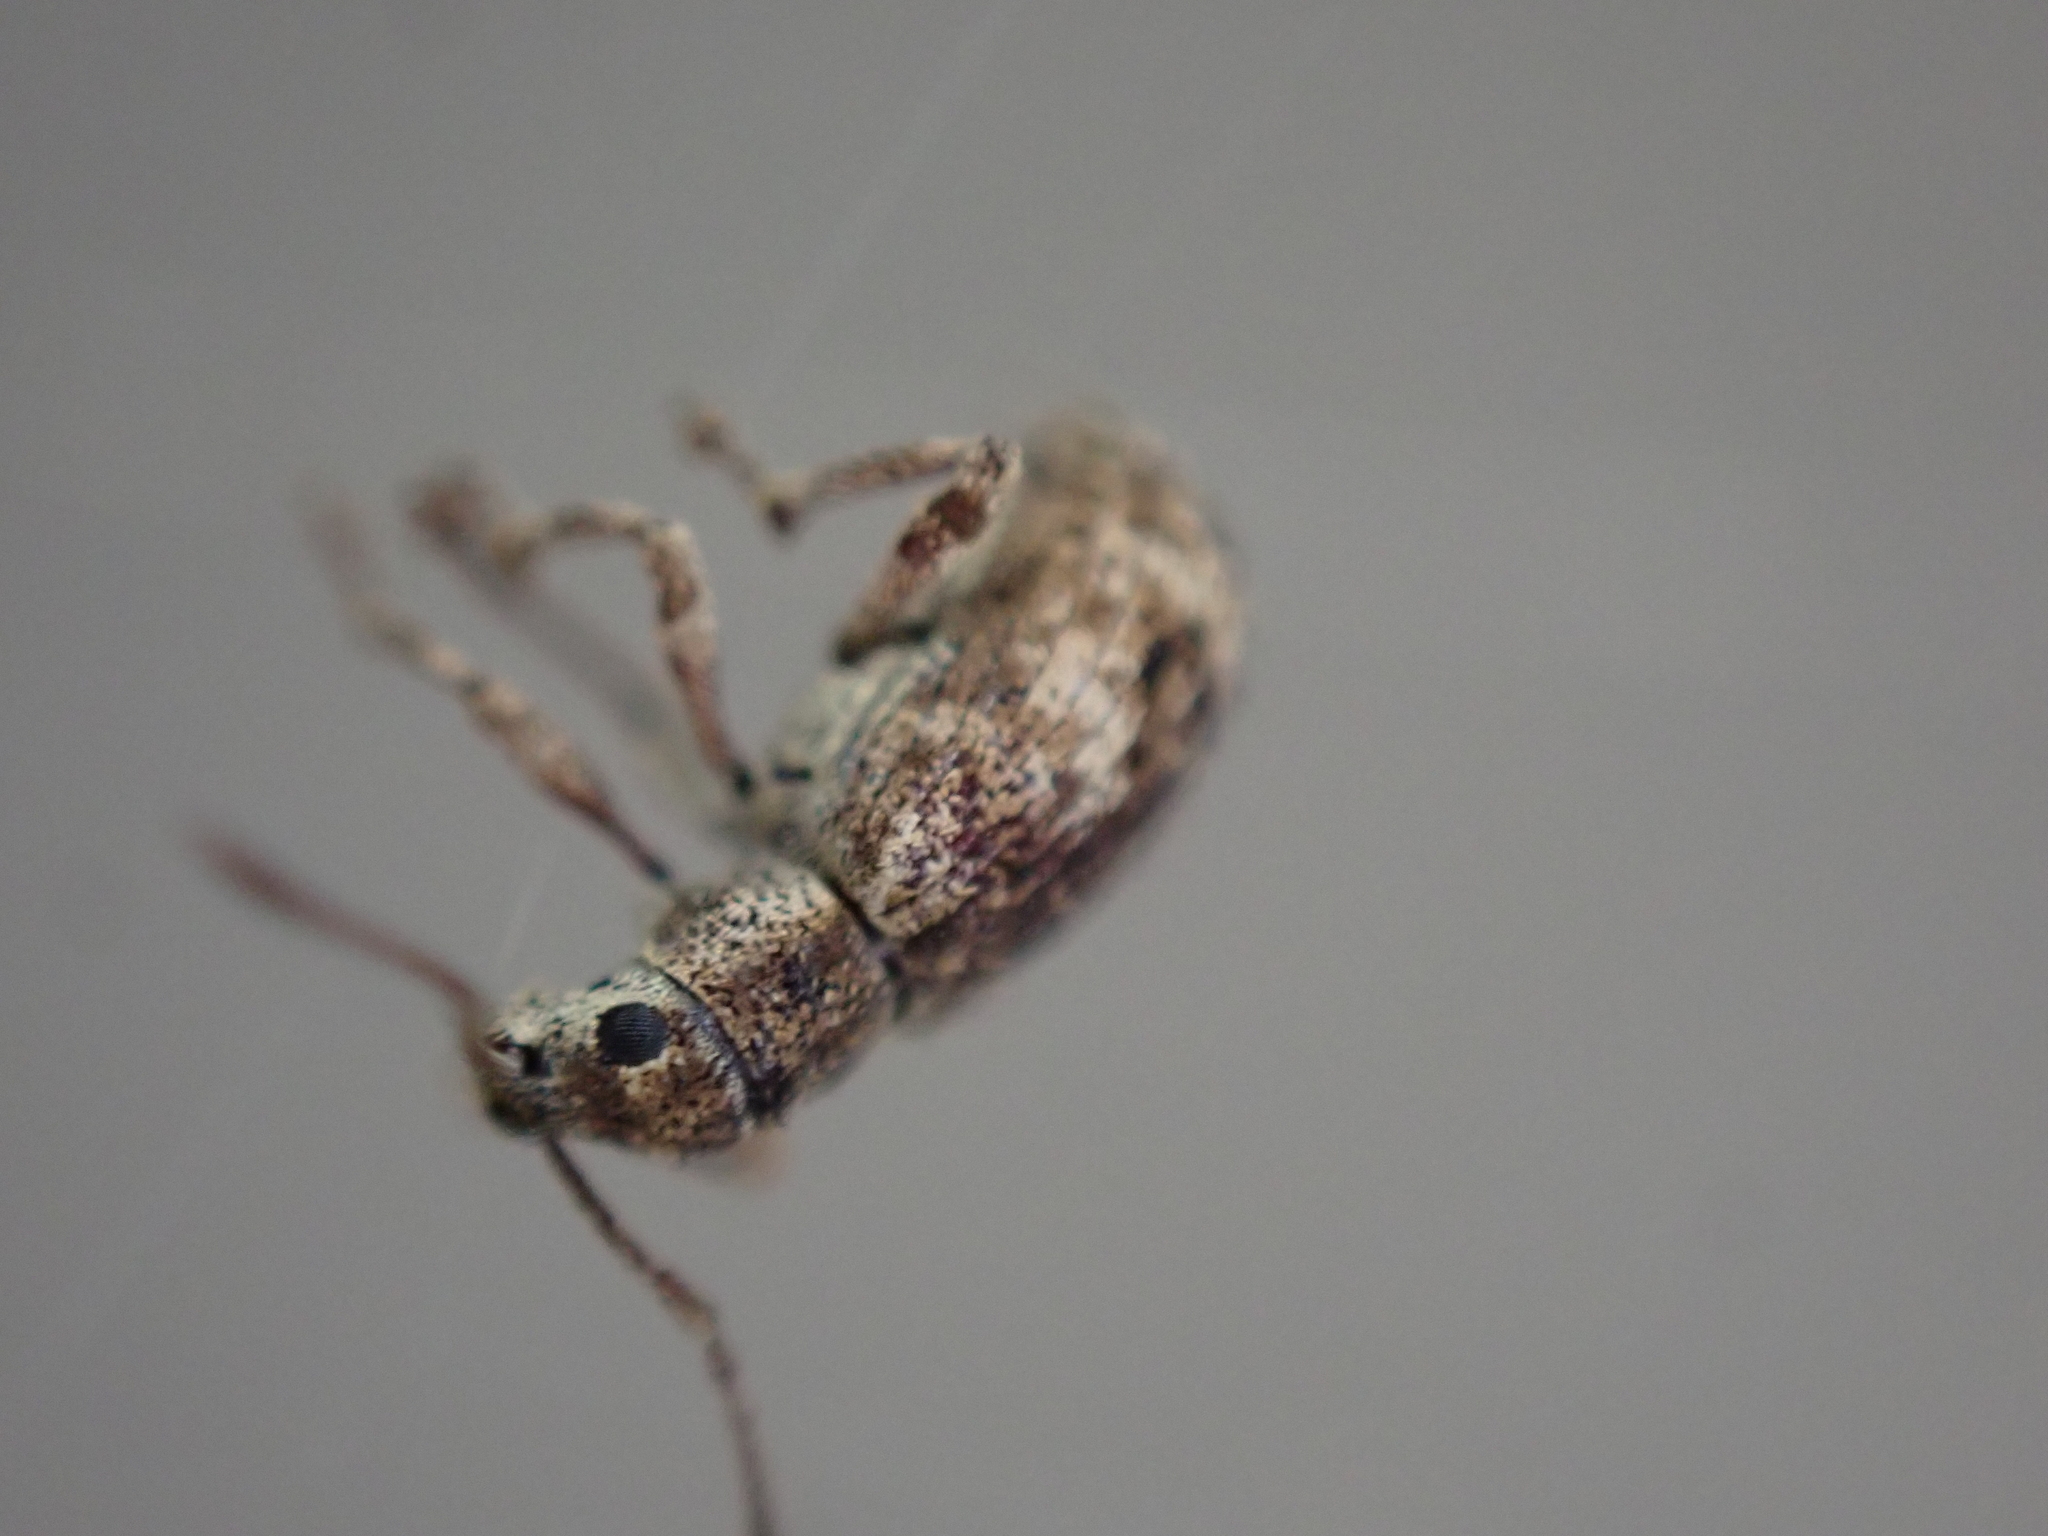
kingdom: Animalia
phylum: Arthropoda
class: Insecta
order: Coleoptera
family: Curculionidae
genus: Pseudoedophrys
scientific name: Pseudoedophrys hilleri
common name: Weevil
